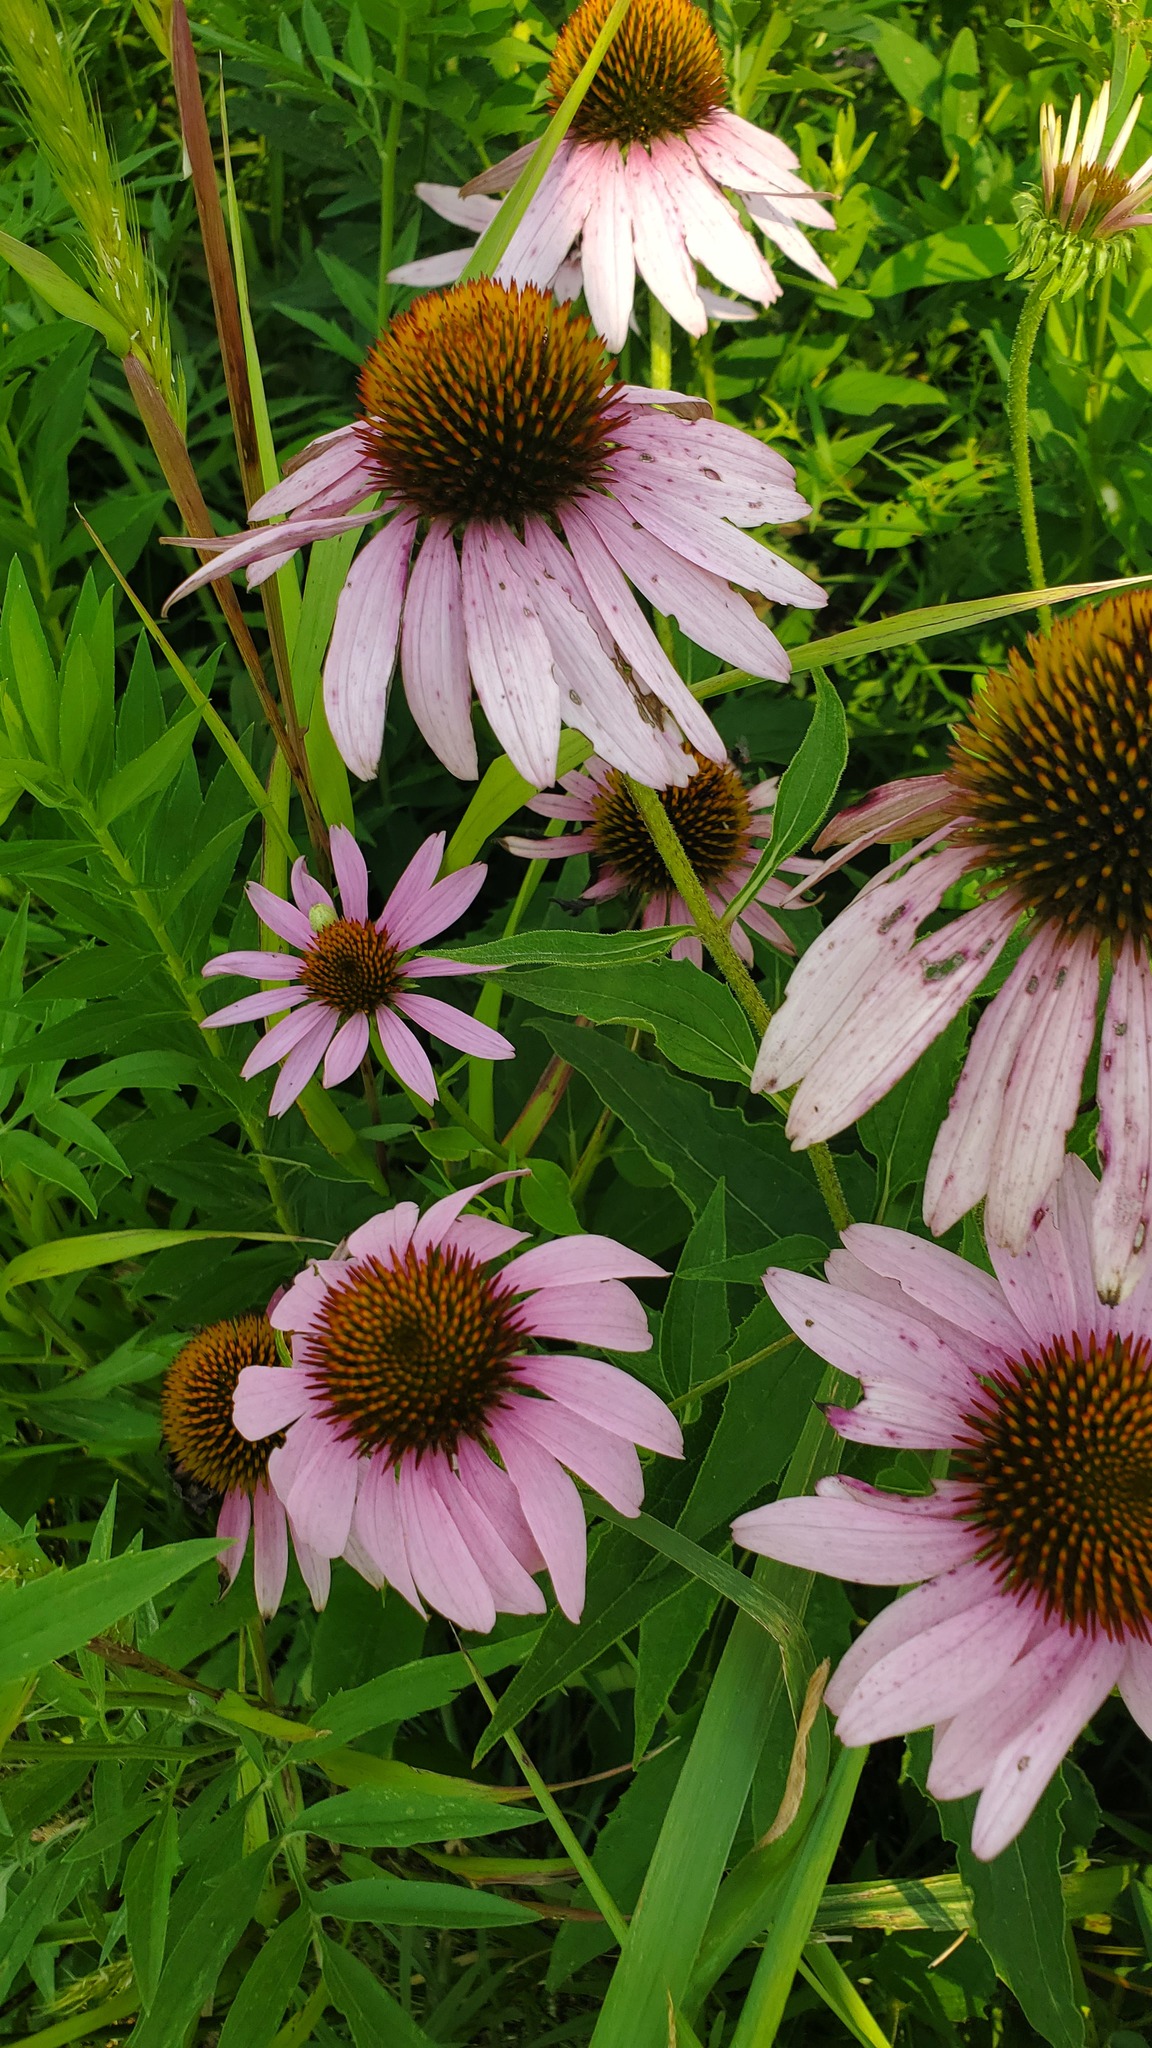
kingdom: Plantae
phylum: Tracheophyta
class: Magnoliopsida
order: Asterales
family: Asteraceae
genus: Echinacea
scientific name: Echinacea purpurea
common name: Broad-leaved purple coneflower
